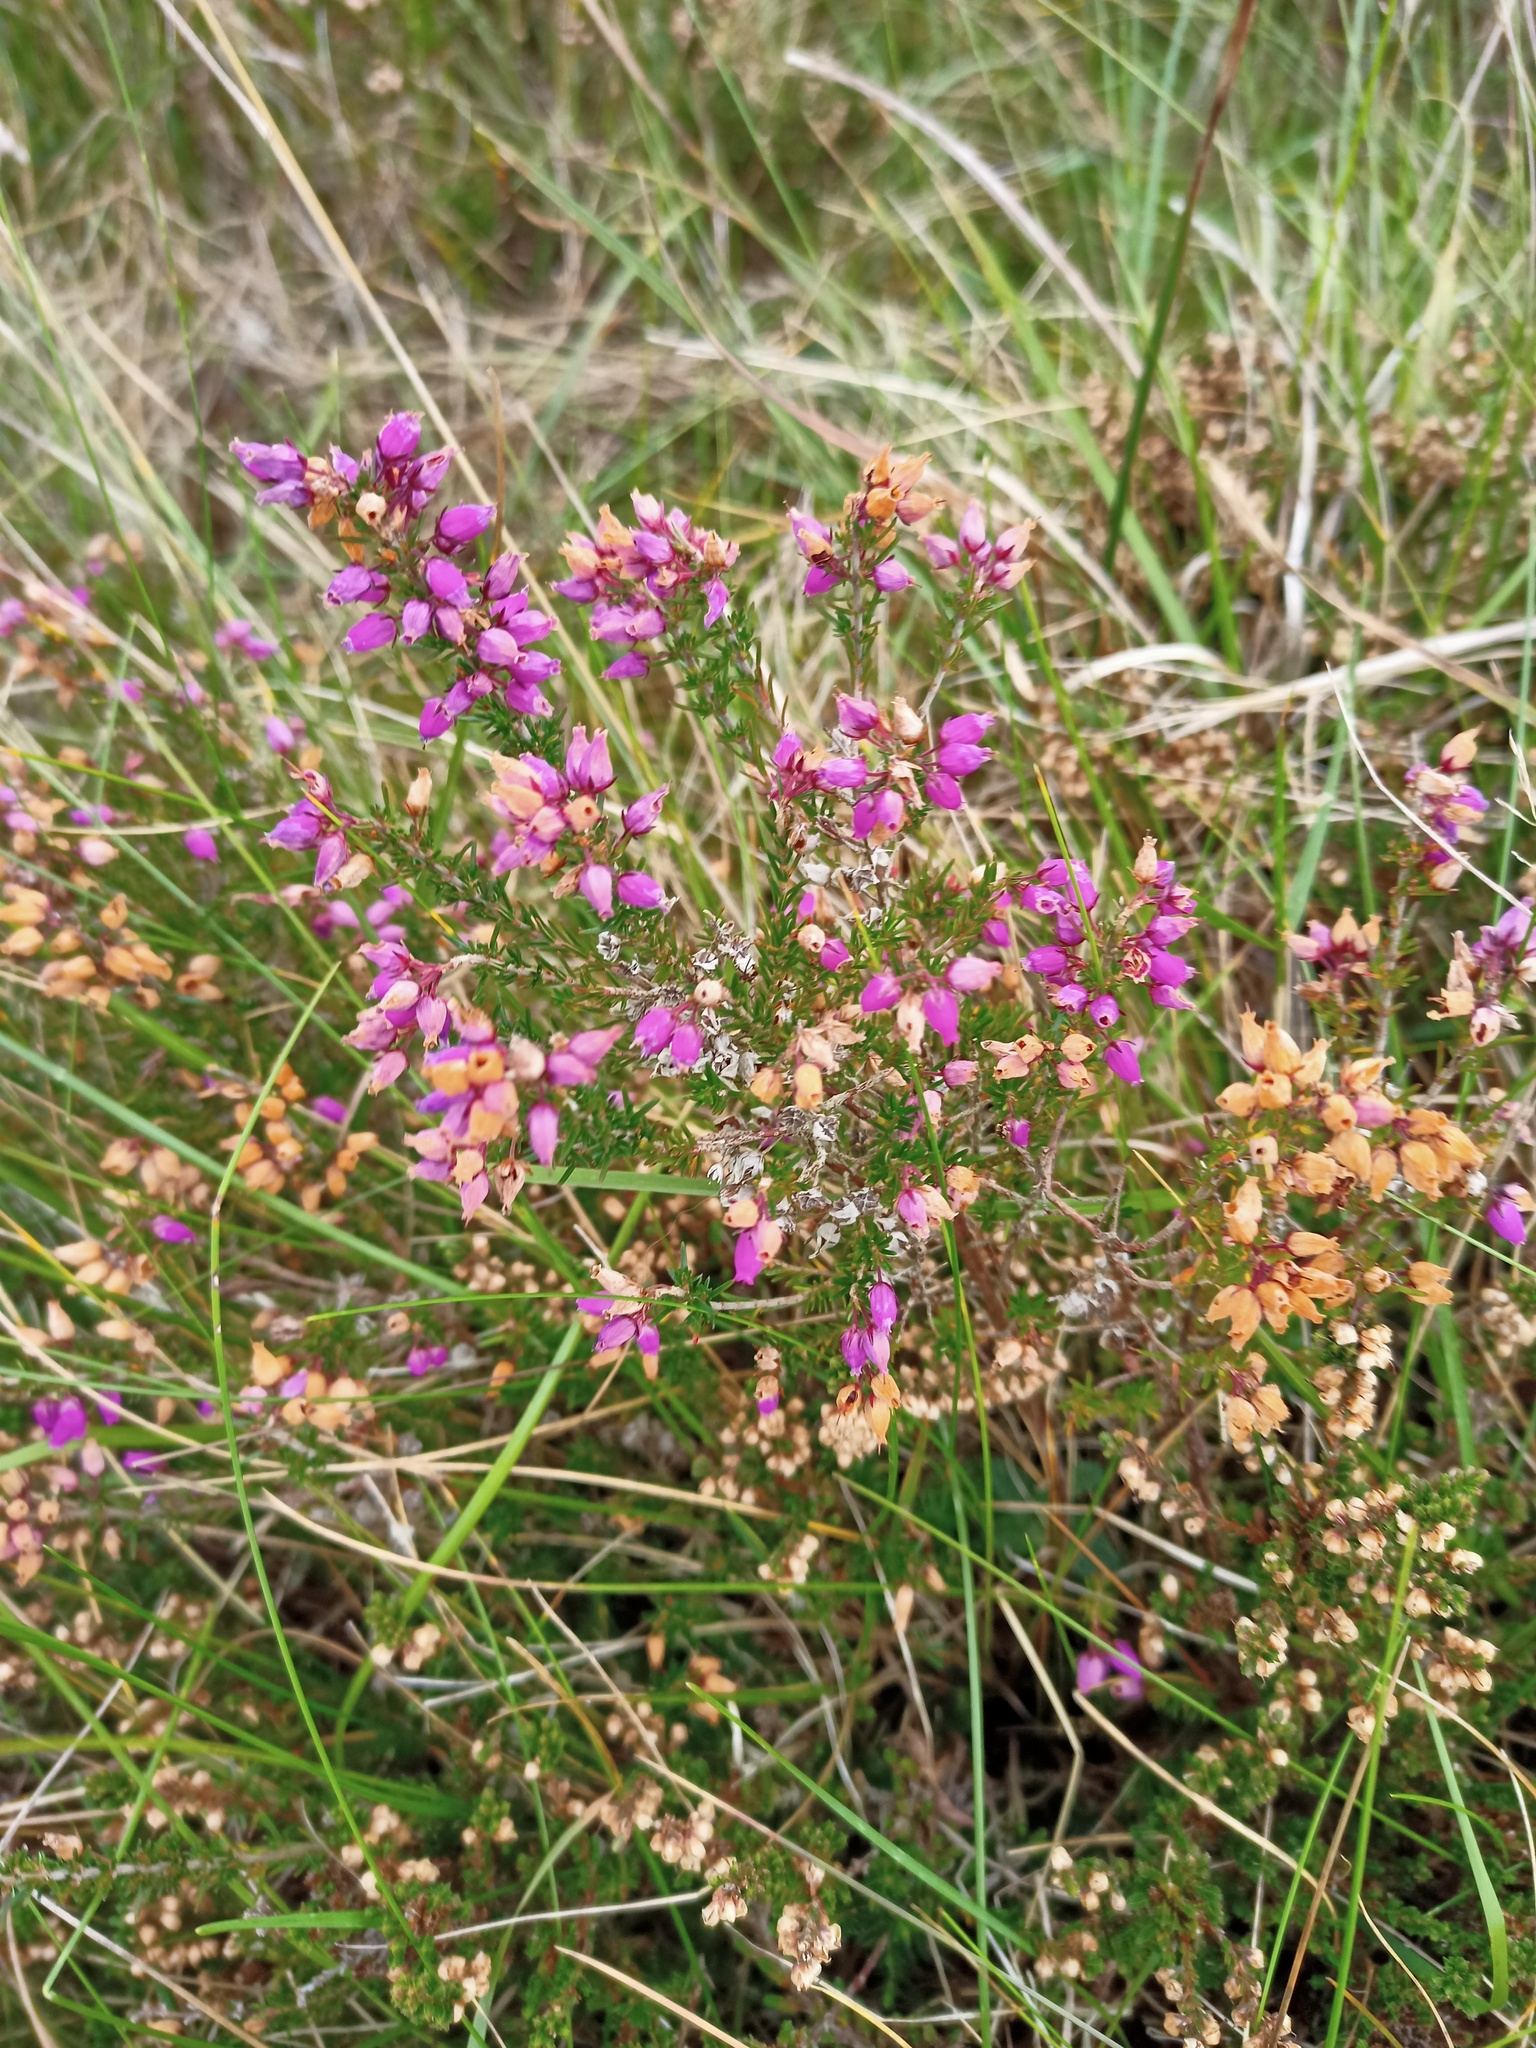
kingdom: Plantae
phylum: Tracheophyta
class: Magnoliopsida
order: Ericales
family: Ericaceae
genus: Erica
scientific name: Erica cinerea
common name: Bell heather
